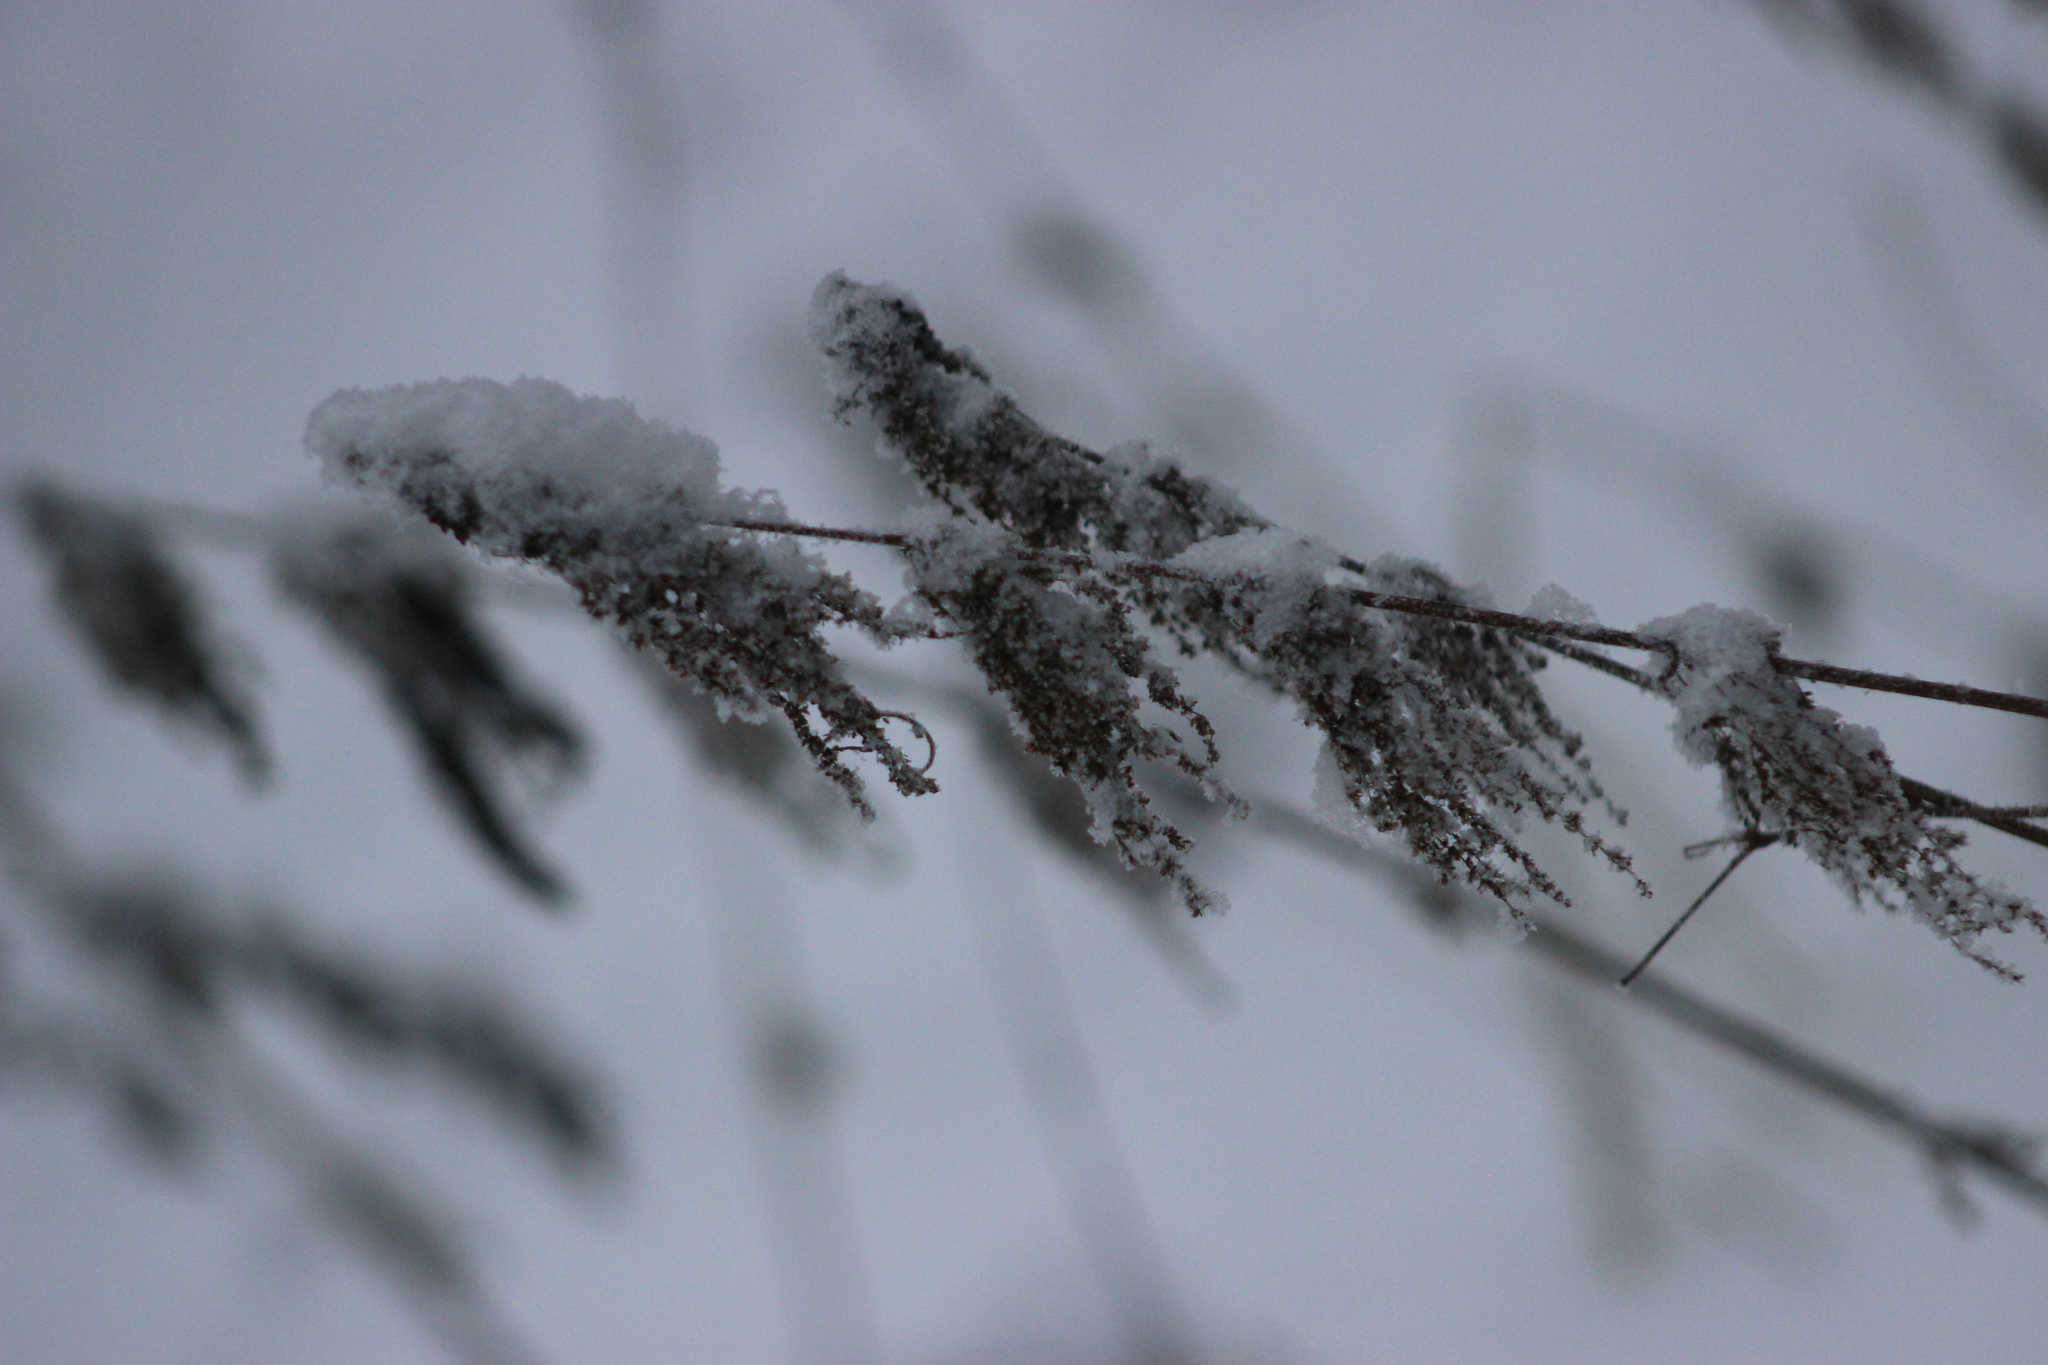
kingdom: Plantae
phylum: Tracheophyta
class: Magnoliopsida
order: Rosales
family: Urticaceae
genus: Urtica
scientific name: Urtica dioica
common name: Common nettle
